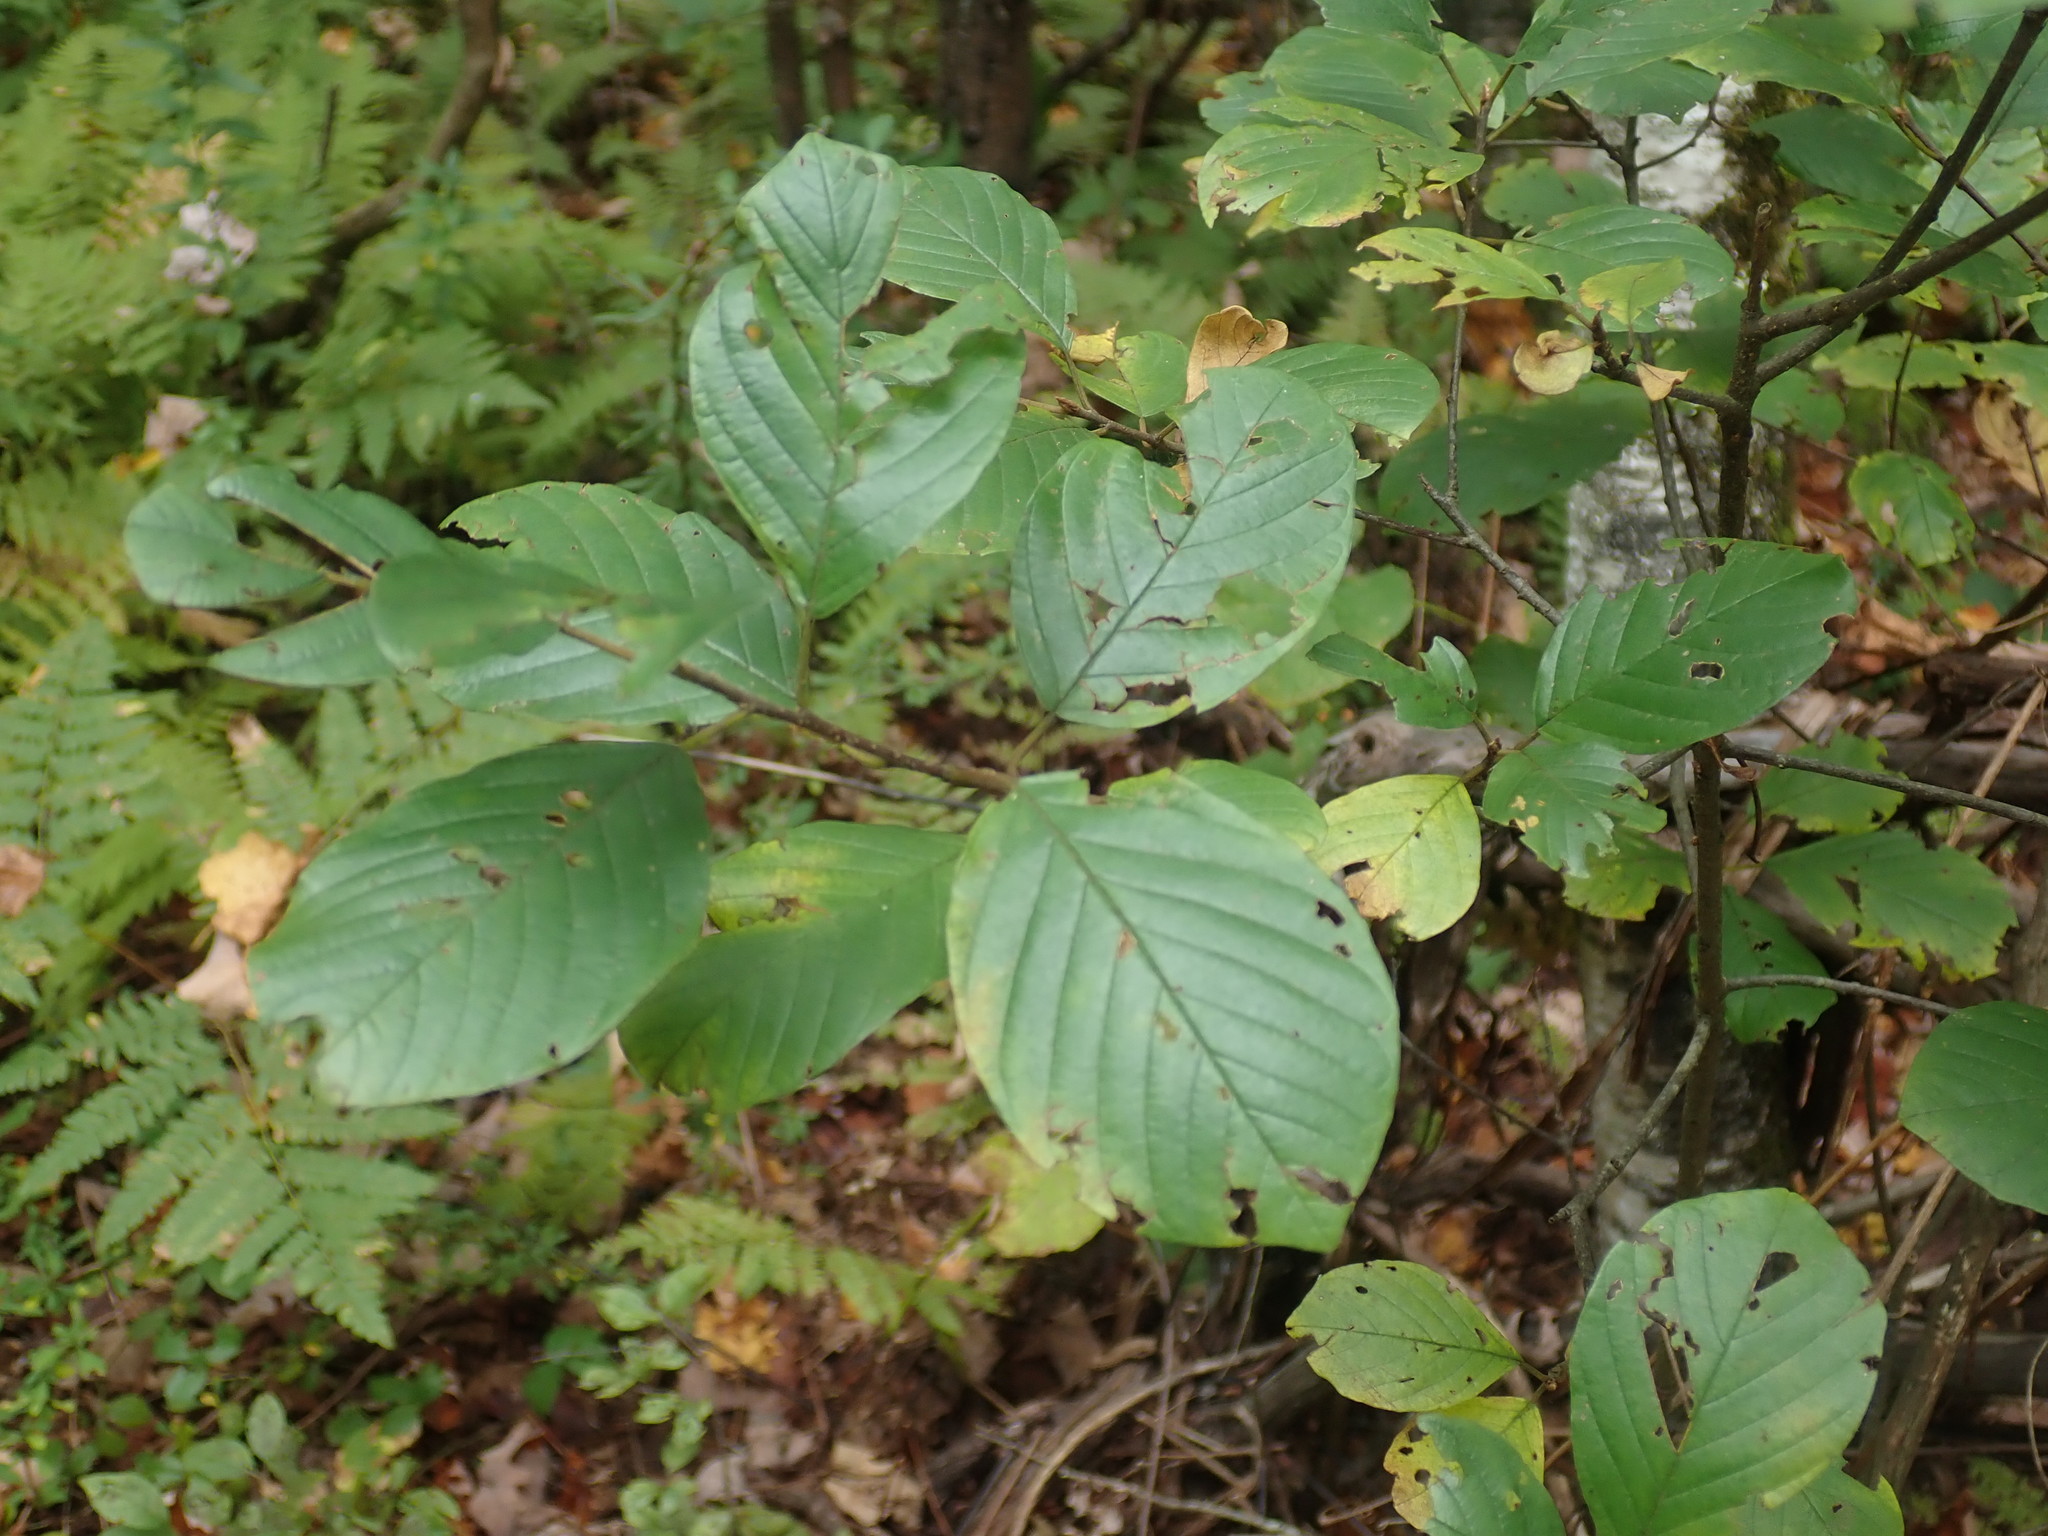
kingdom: Plantae
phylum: Tracheophyta
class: Magnoliopsida
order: Rosales
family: Rhamnaceae
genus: Frangula
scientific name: Frangula alnus
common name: Alder buckthorn
